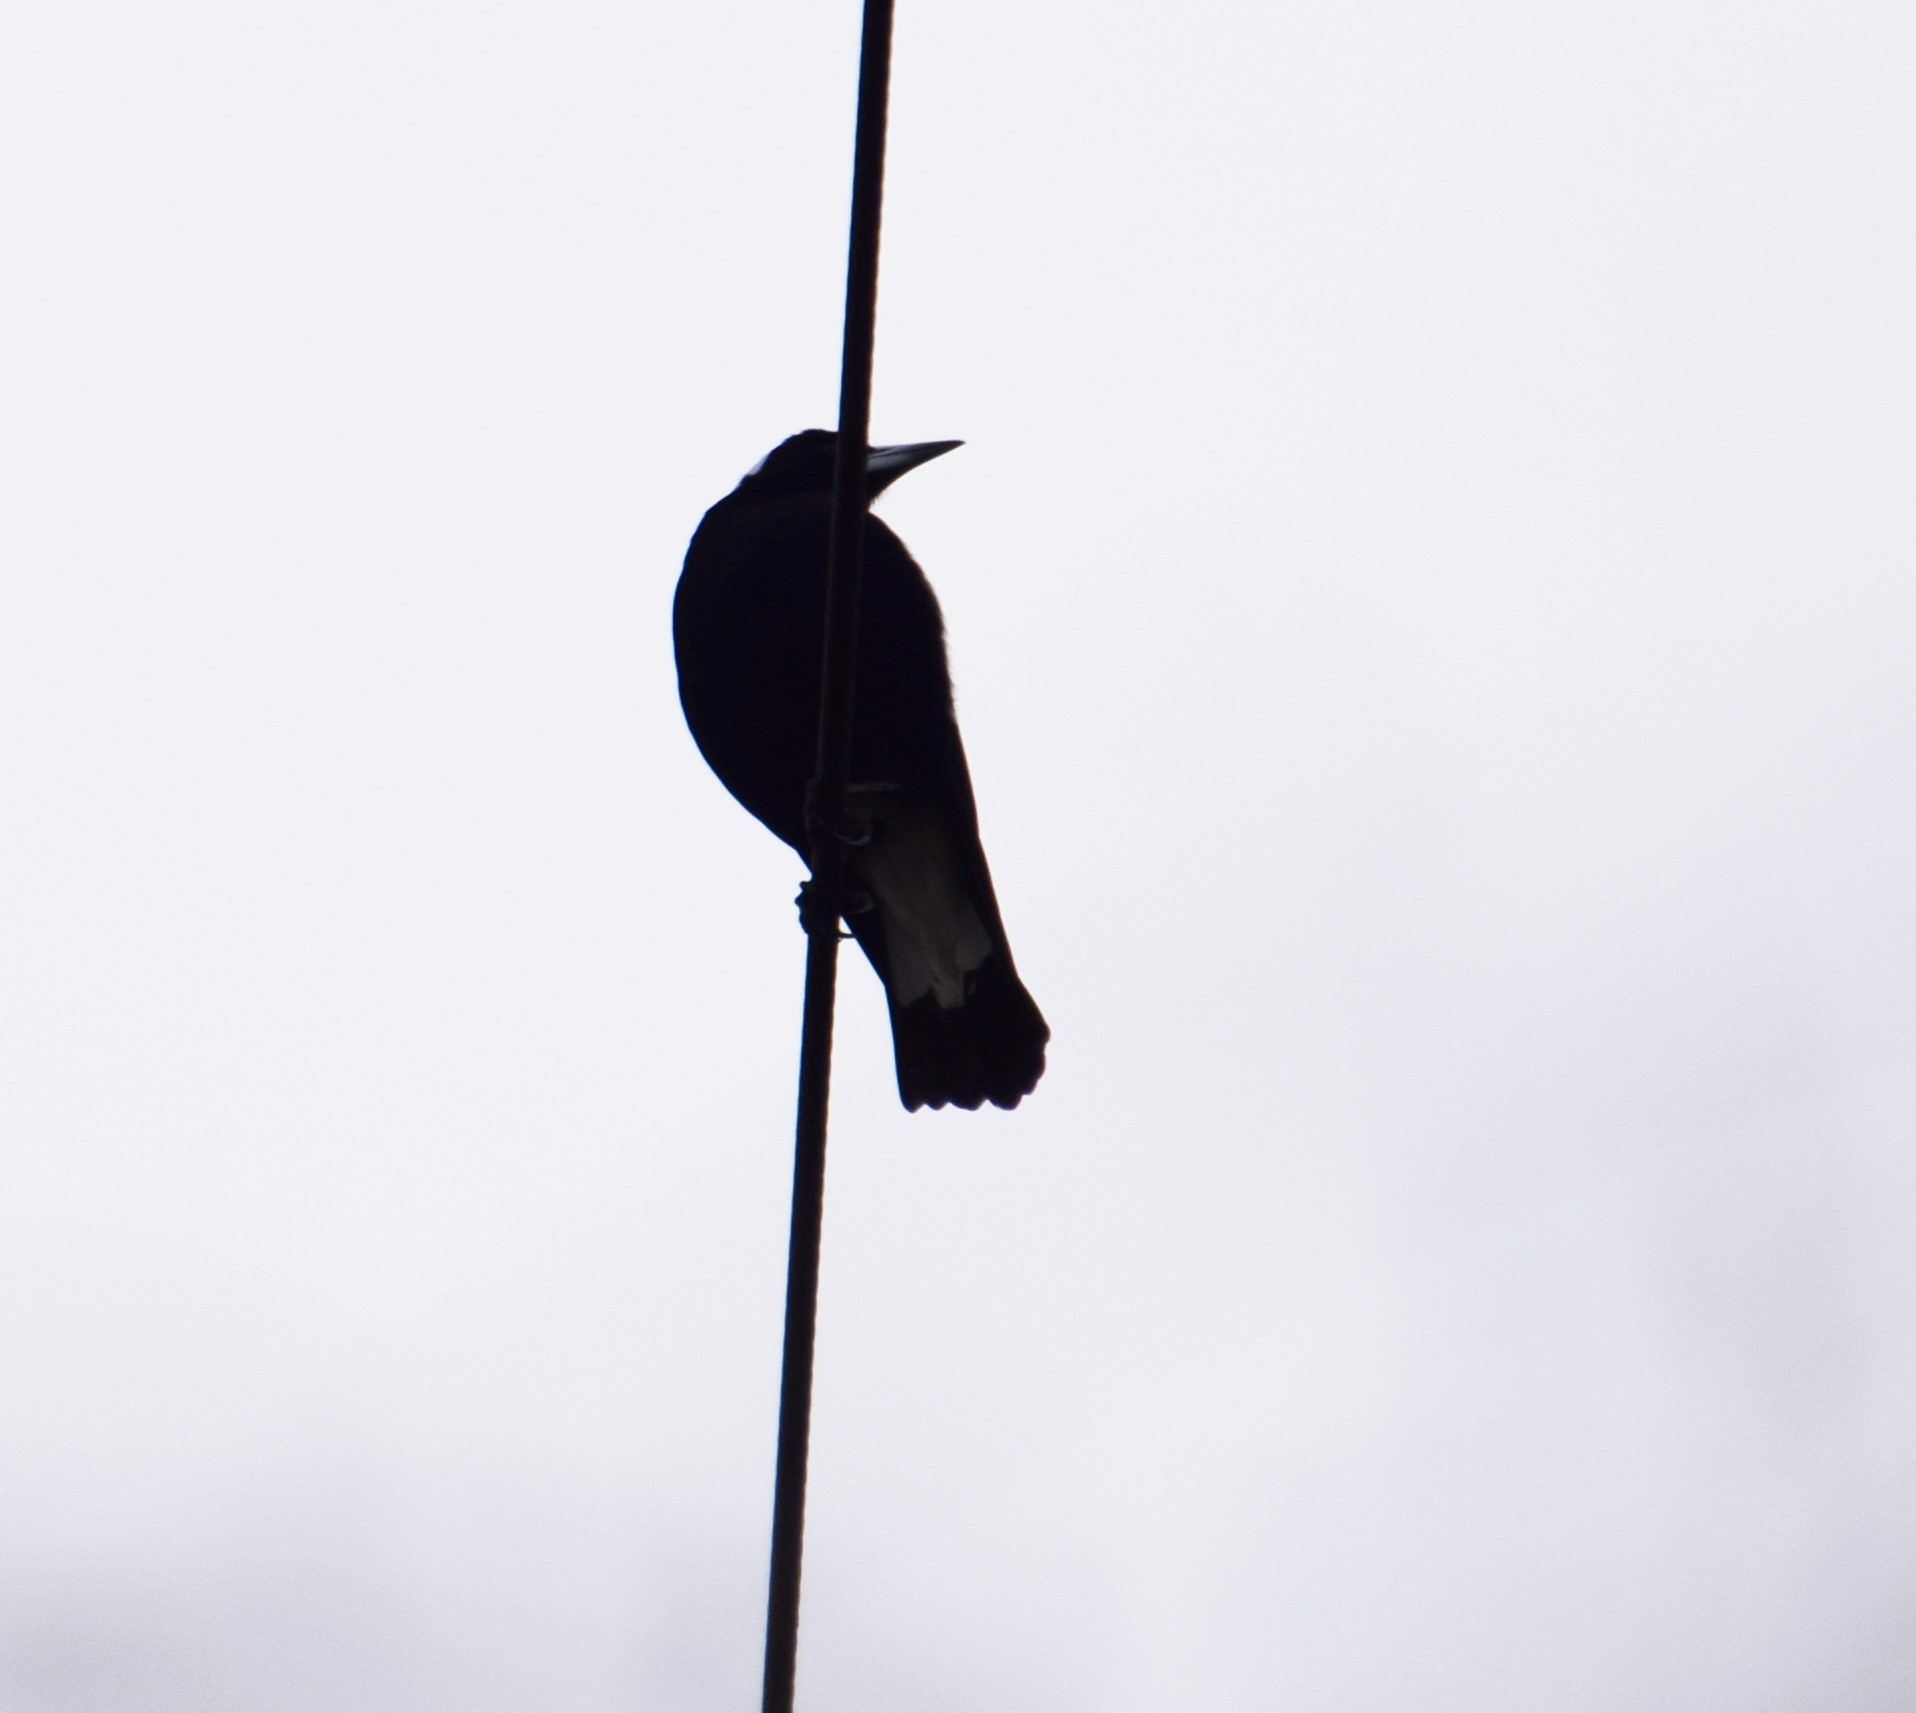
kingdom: Animalia
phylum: Chordata
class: Aves
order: Passeriformes
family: Cracticidae
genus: Gymnorhina
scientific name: Gymnorhina tibicen
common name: Australian magpie
